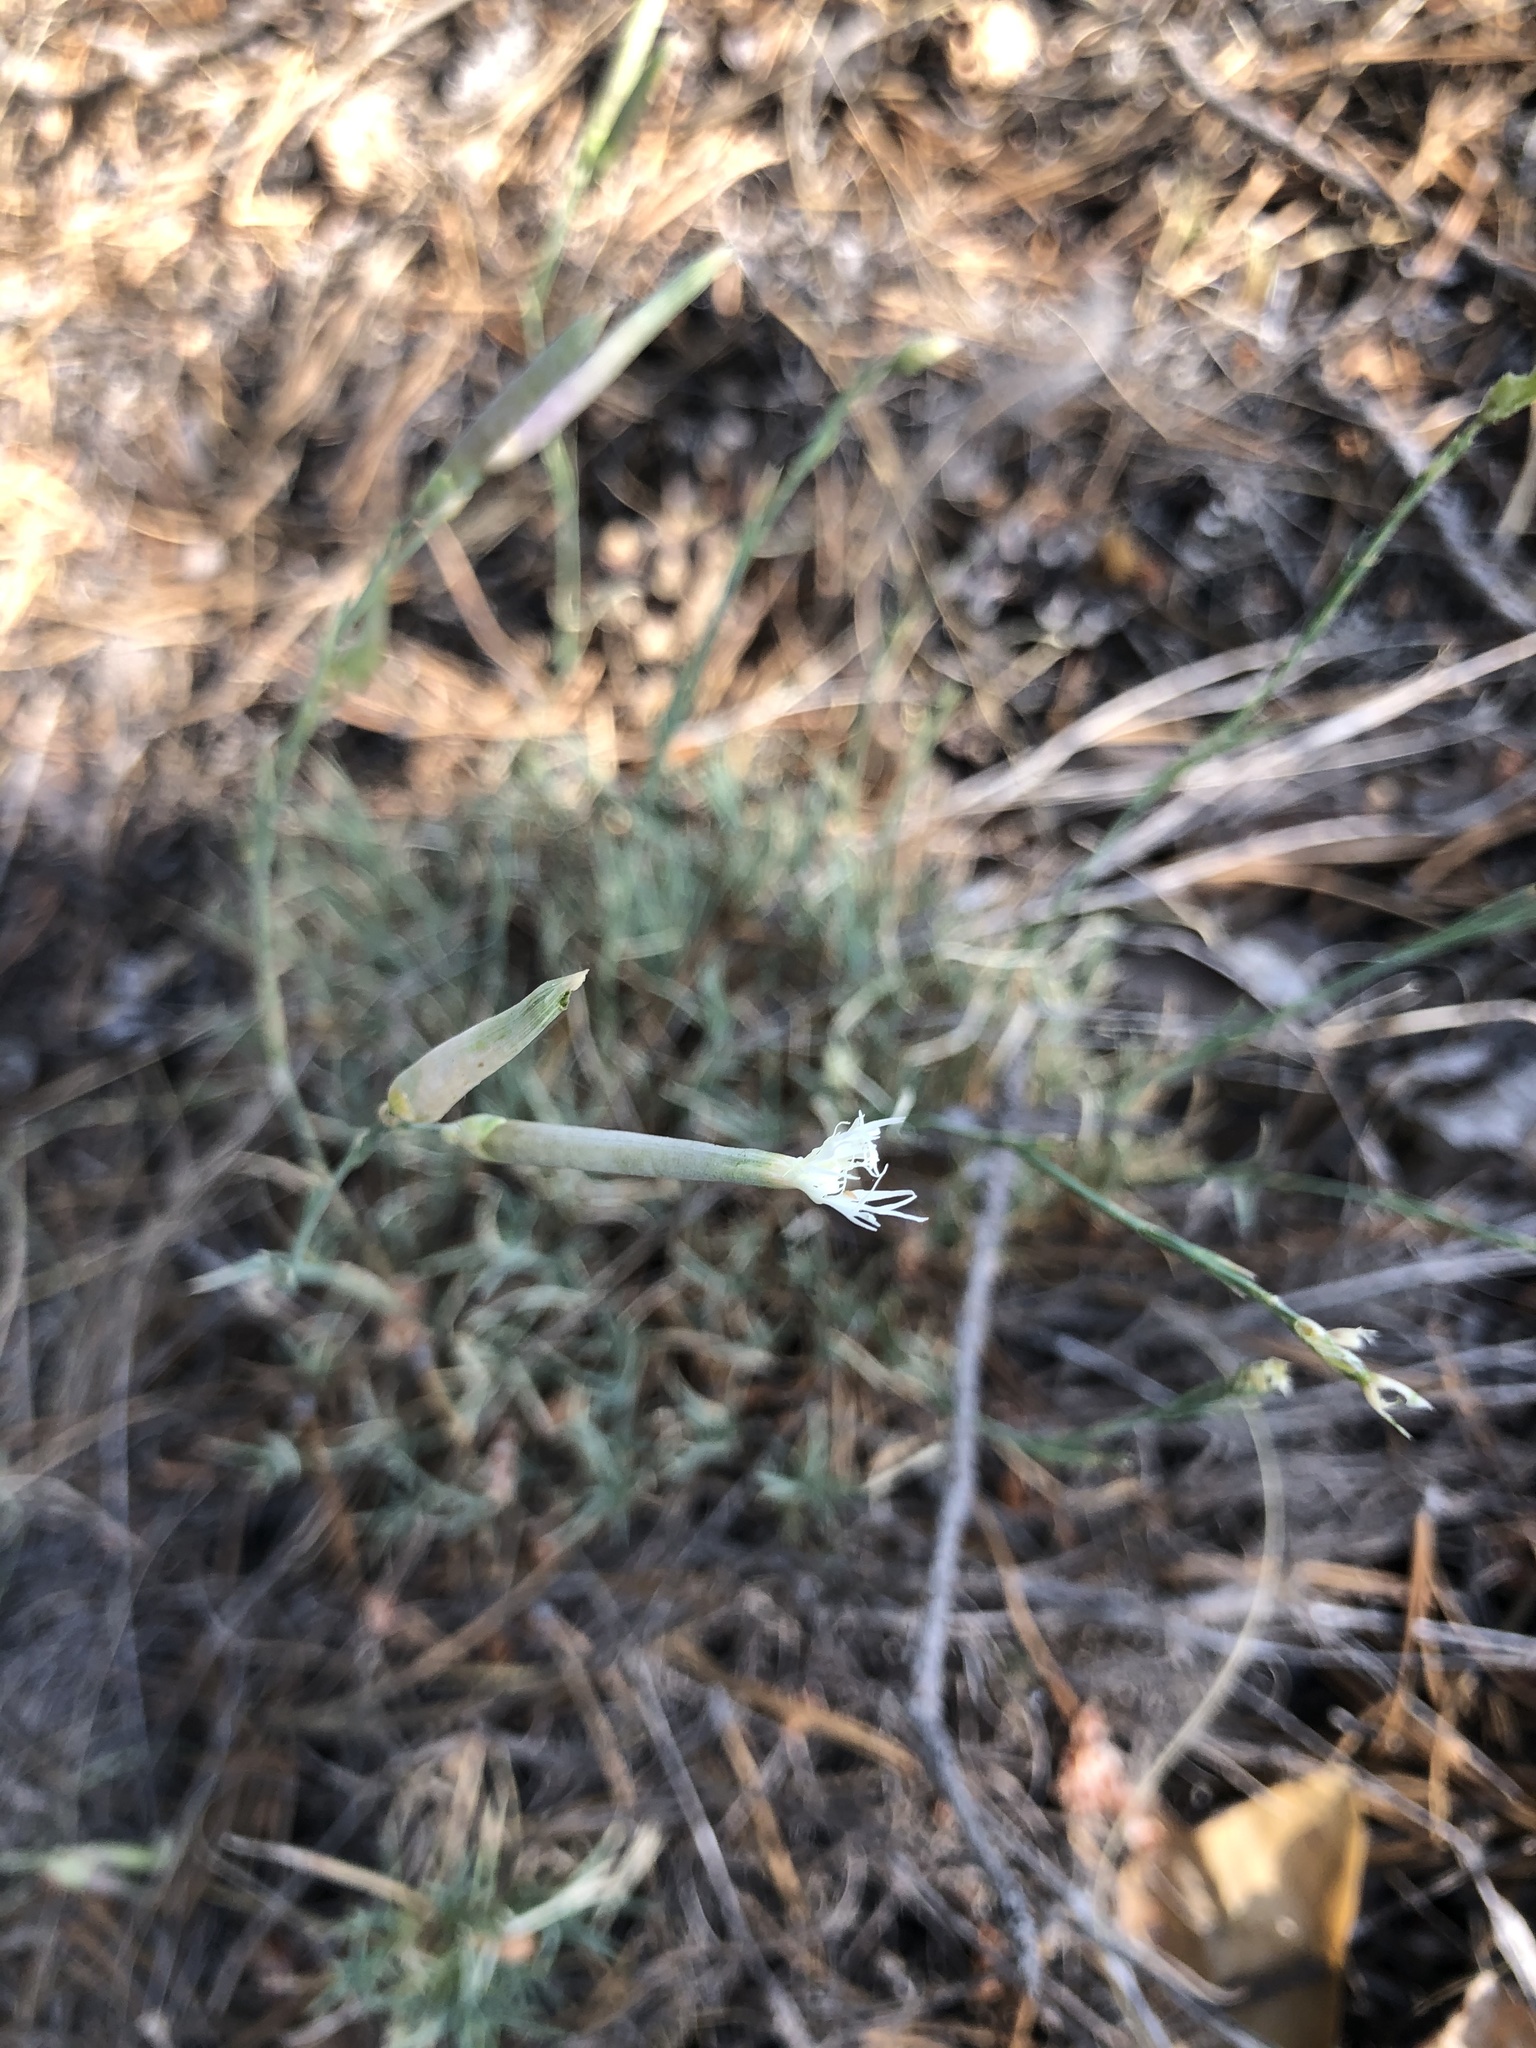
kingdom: Plantae
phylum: Tracheophyta
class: Magnoliopsida
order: Caryophyllales
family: Caryophyllaceae
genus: Dianthus
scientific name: Dianthus acicularis
